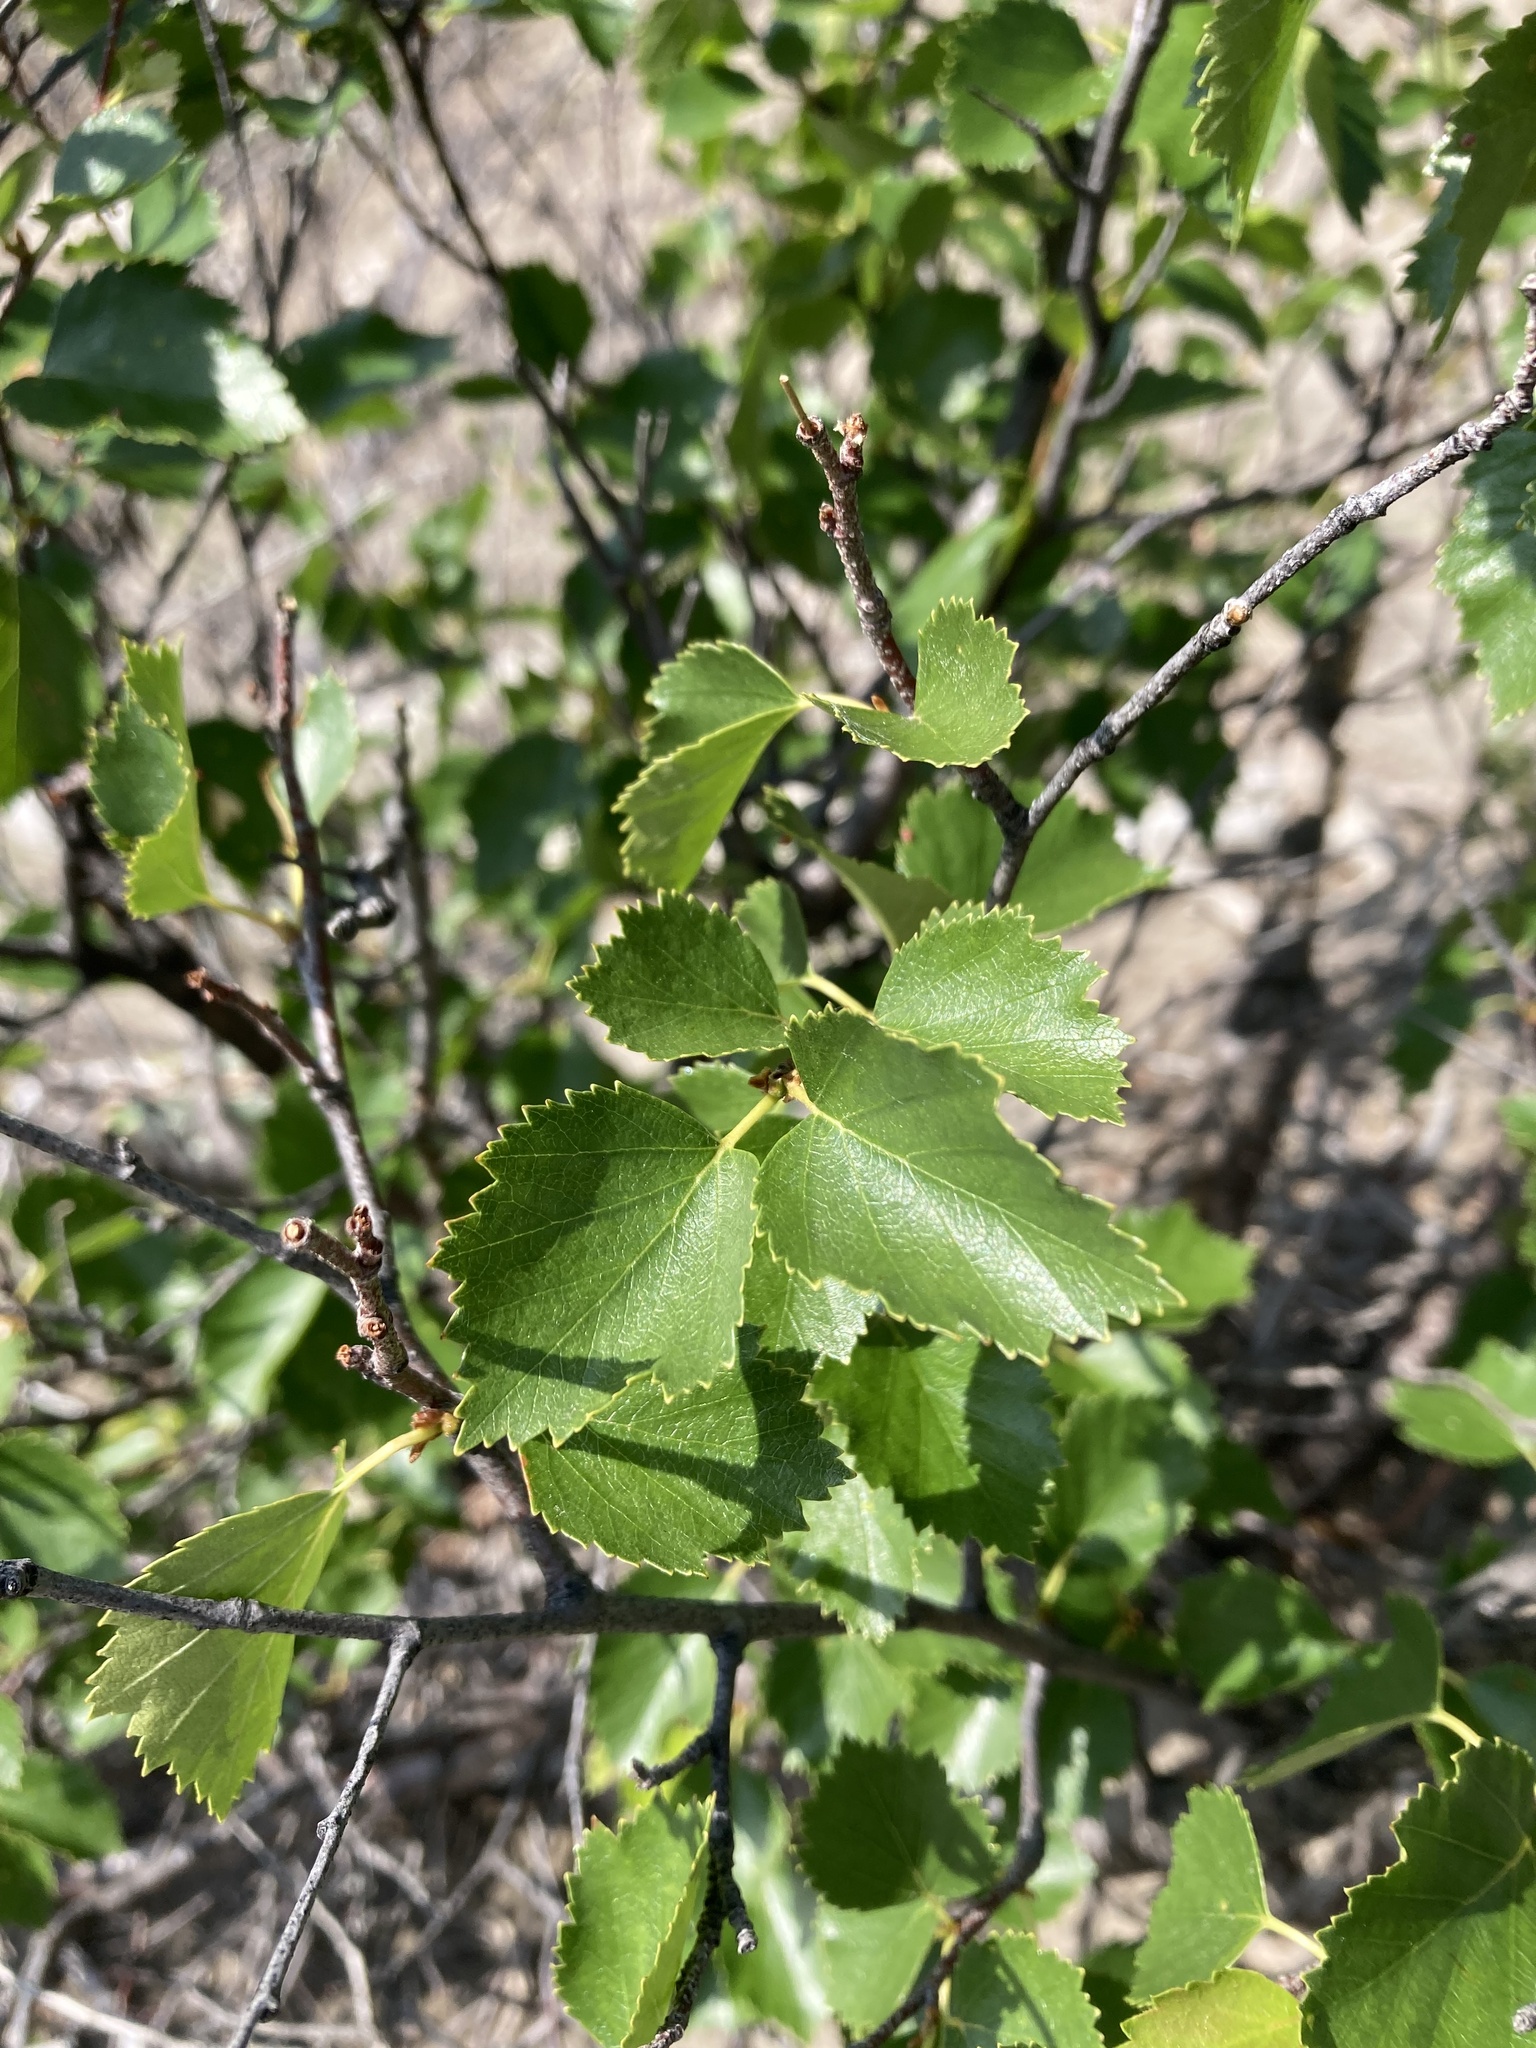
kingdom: Plantae
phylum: Tracheophyta
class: Magnoliopsida
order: Fagales
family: Betulaceae
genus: Betula
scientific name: Betula occidentalis
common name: River birch
